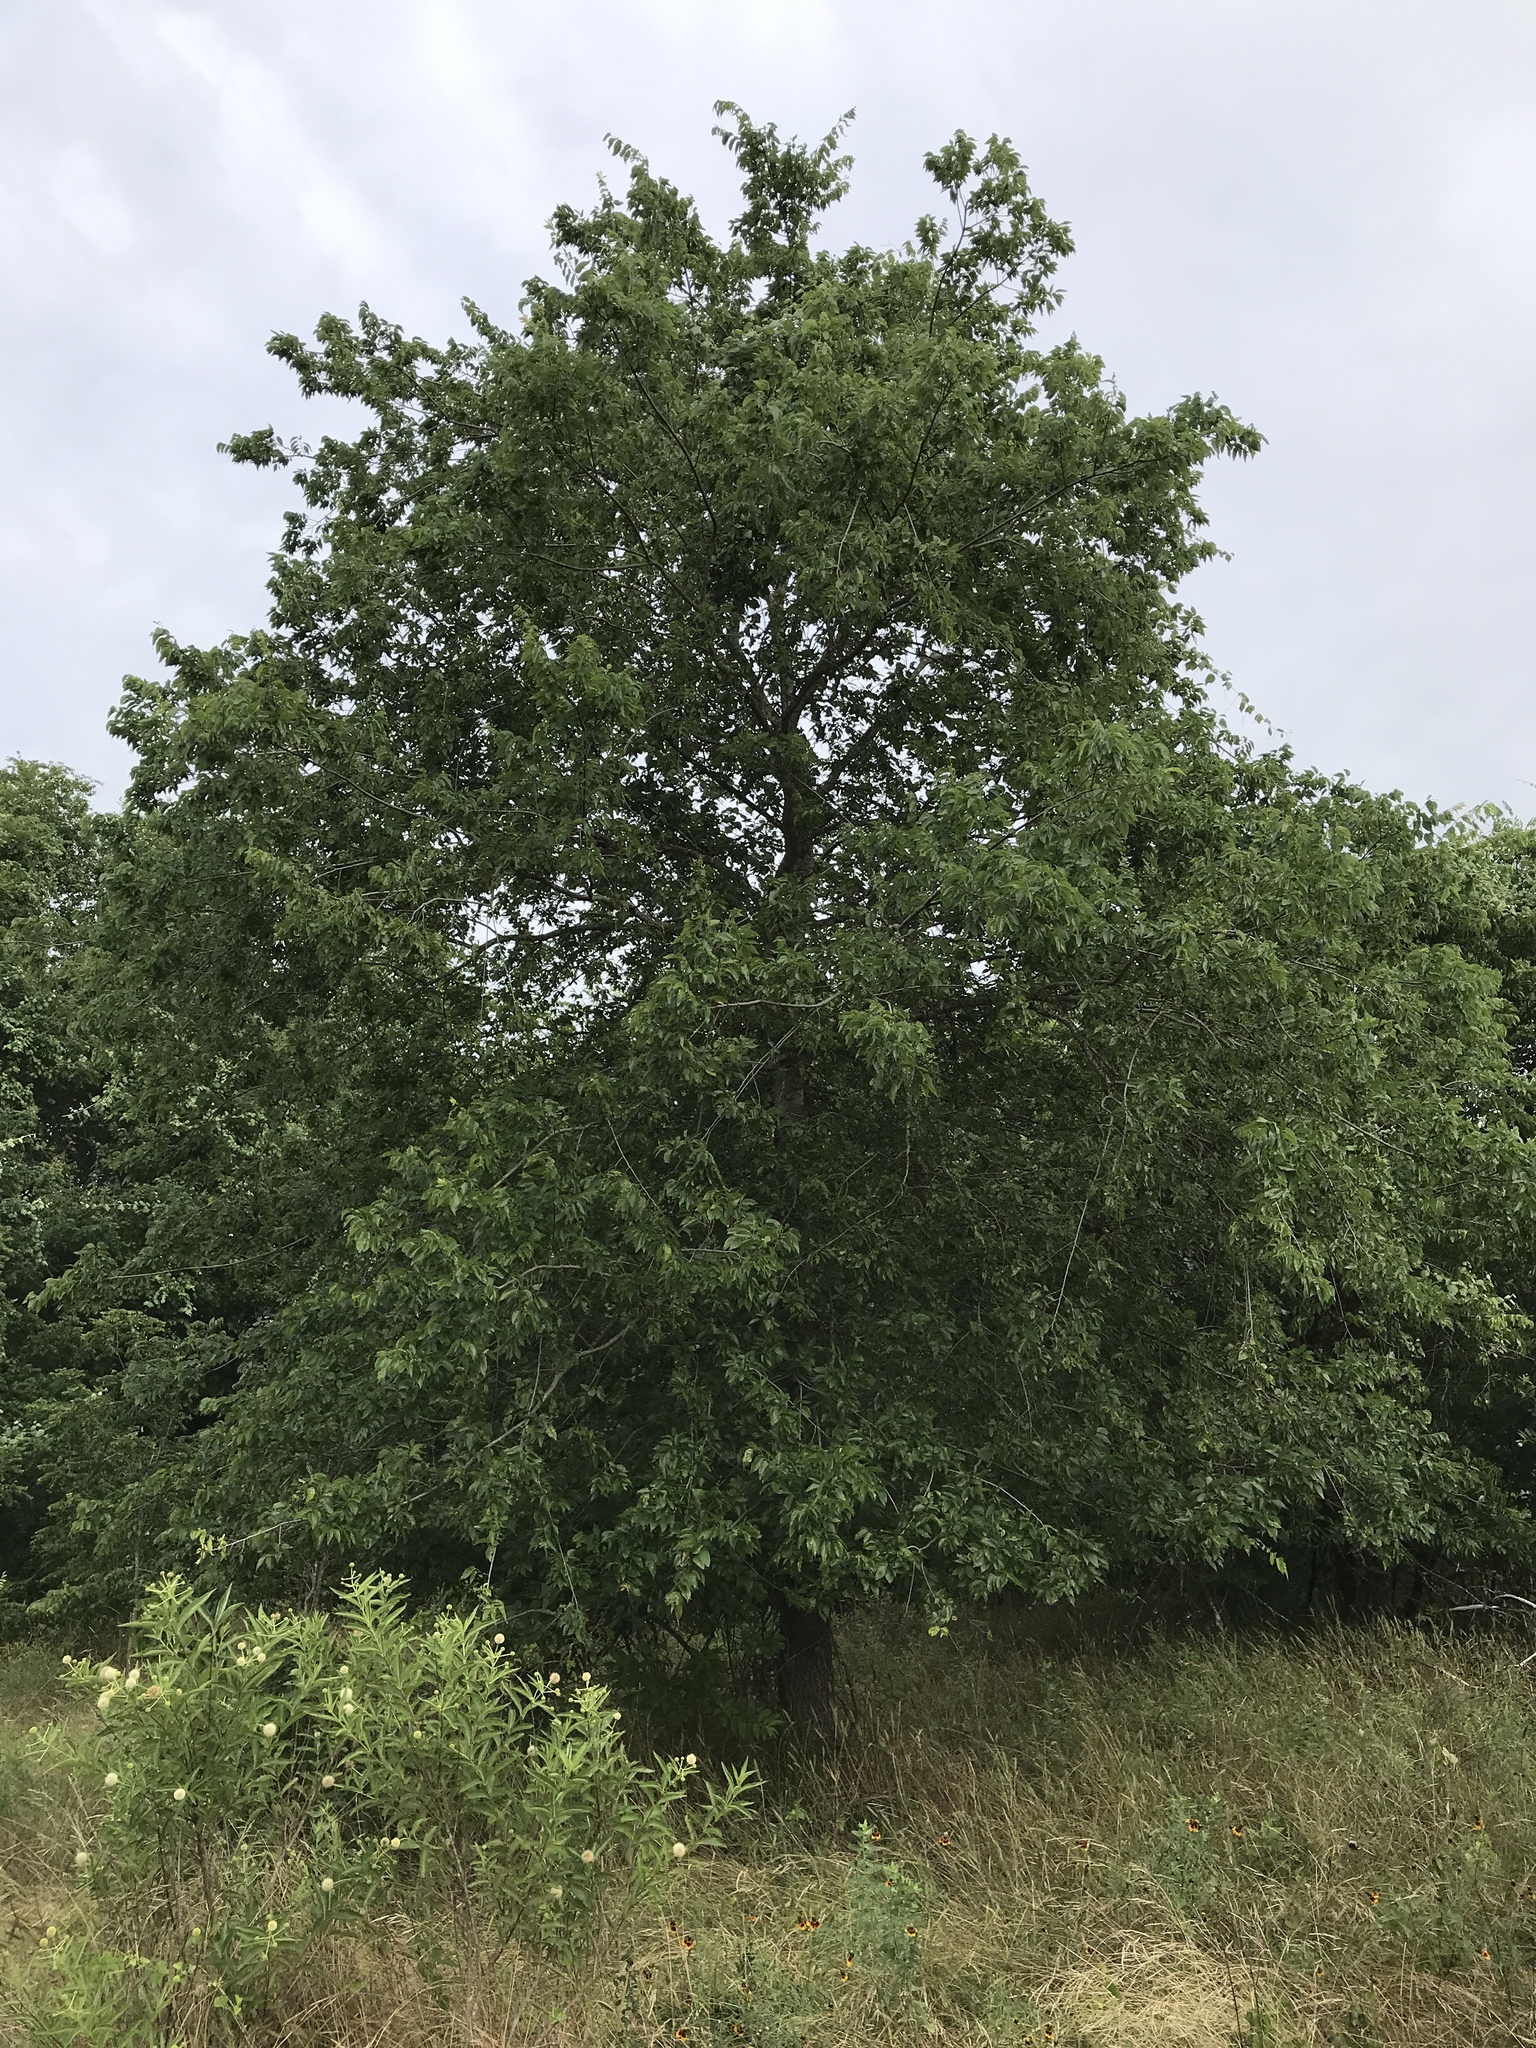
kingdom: Plantae
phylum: Tracheophyta
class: Magnoliopsida
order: Rosales
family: Cannabaceae
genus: Celtis
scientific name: Celtis laevigata
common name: Sugarberry
